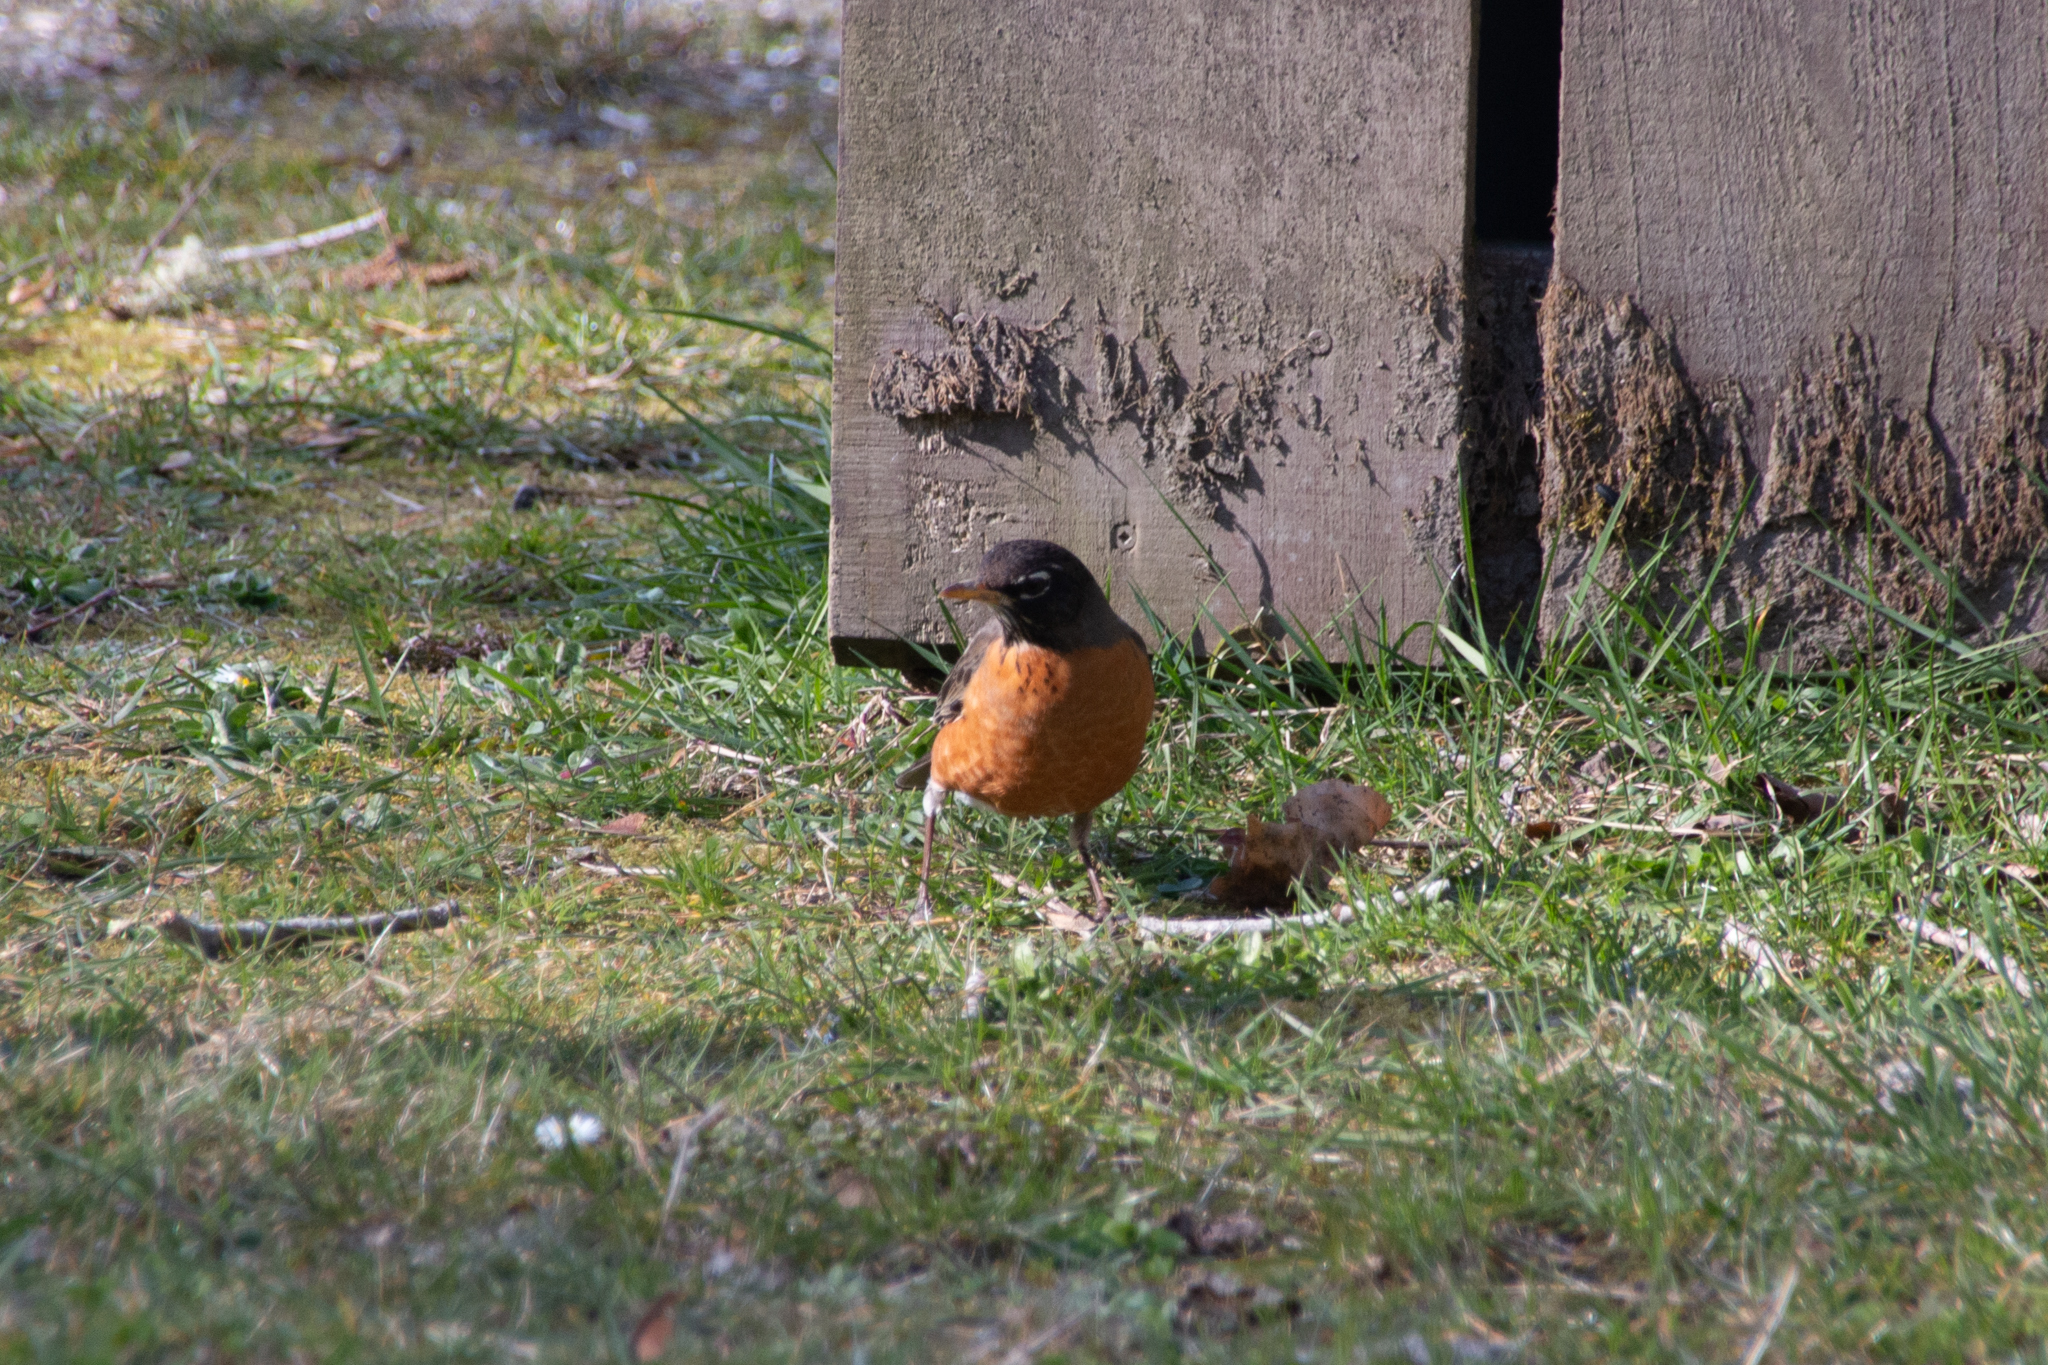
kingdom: Animalia
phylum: Chordata
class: Aves
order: Passeriformes
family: Turdidae
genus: Turdus
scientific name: Turdus migratorius
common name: American robin
